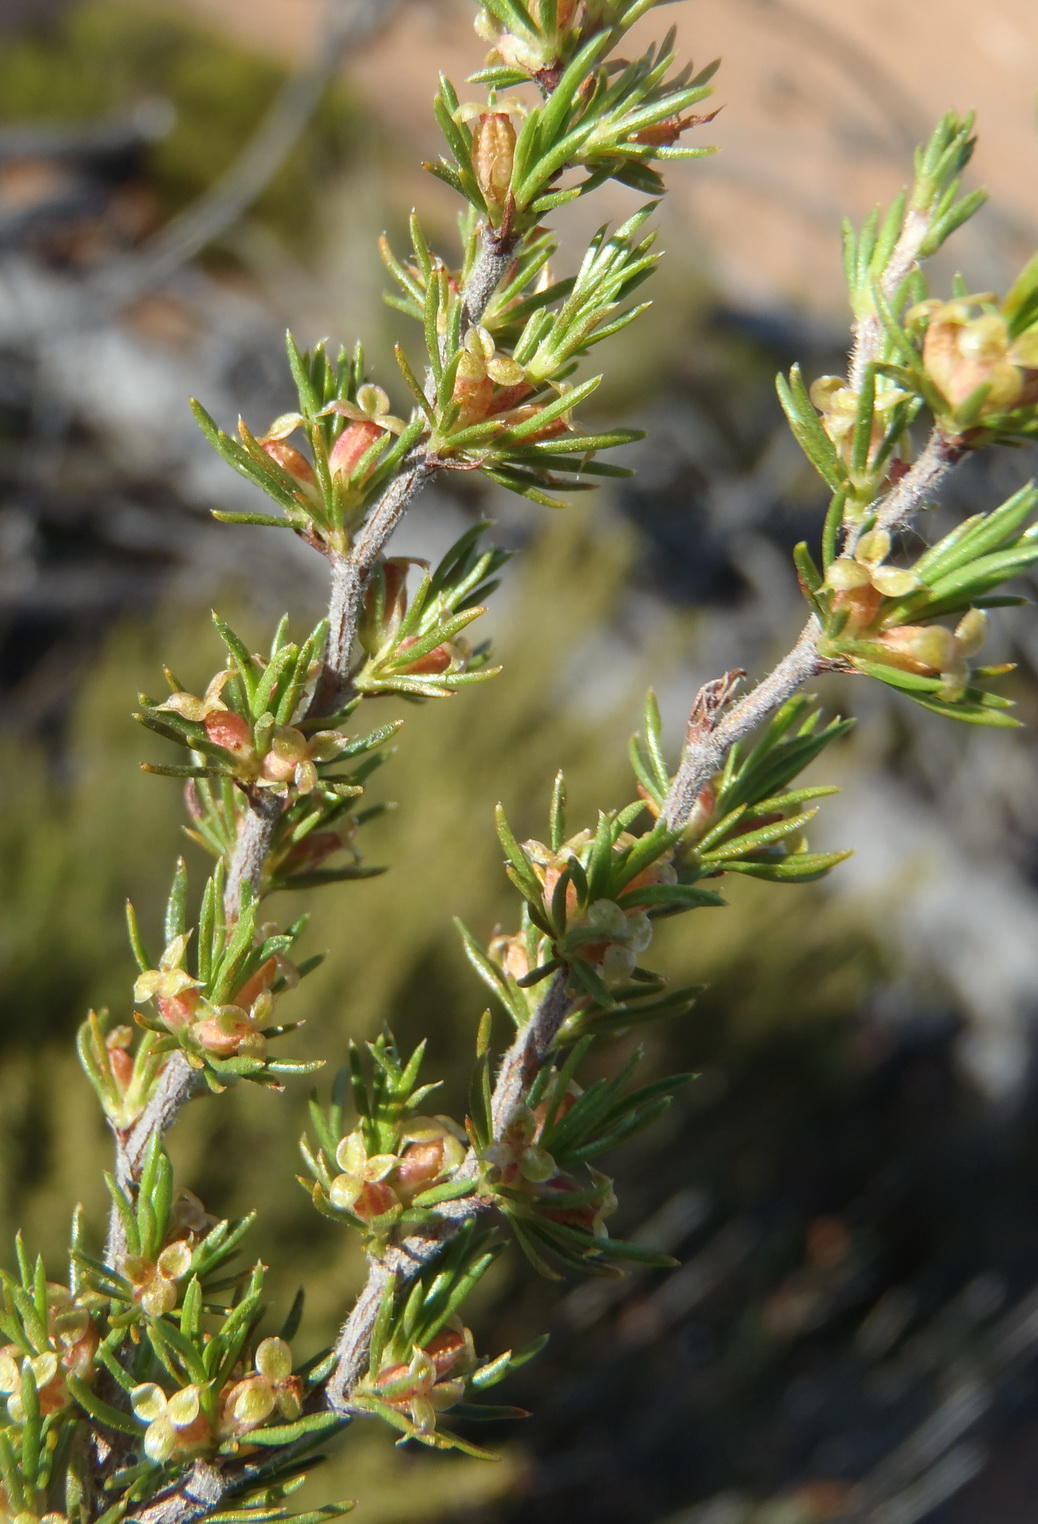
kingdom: Plantae
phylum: Tracheophyta
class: Magnoliopsida
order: Rosales
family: Rosaceae
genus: Cliffortia
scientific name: Cliffortia tuberculata
